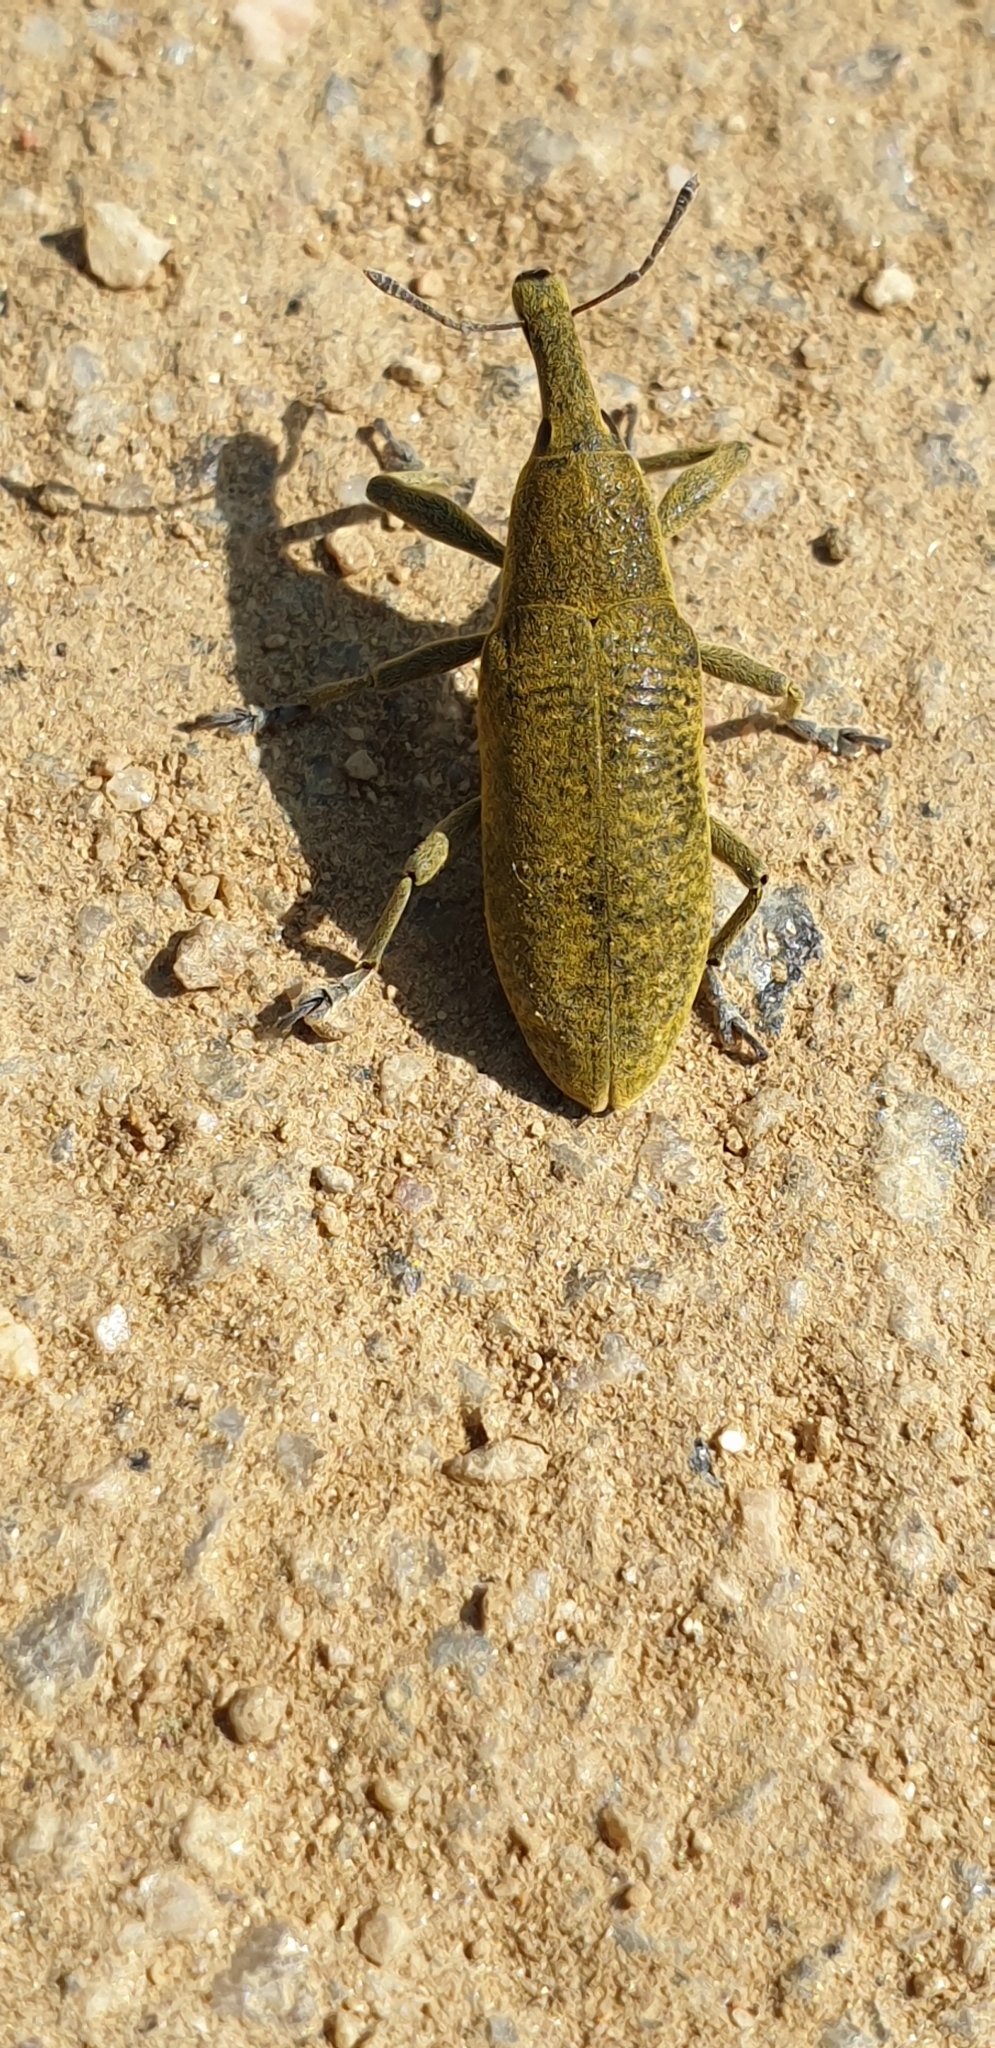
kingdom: Animalia
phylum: Arthropoda
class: Insecta
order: Coleoptera
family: Curculionidae
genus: Lixus
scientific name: Lixus pulverulentus
